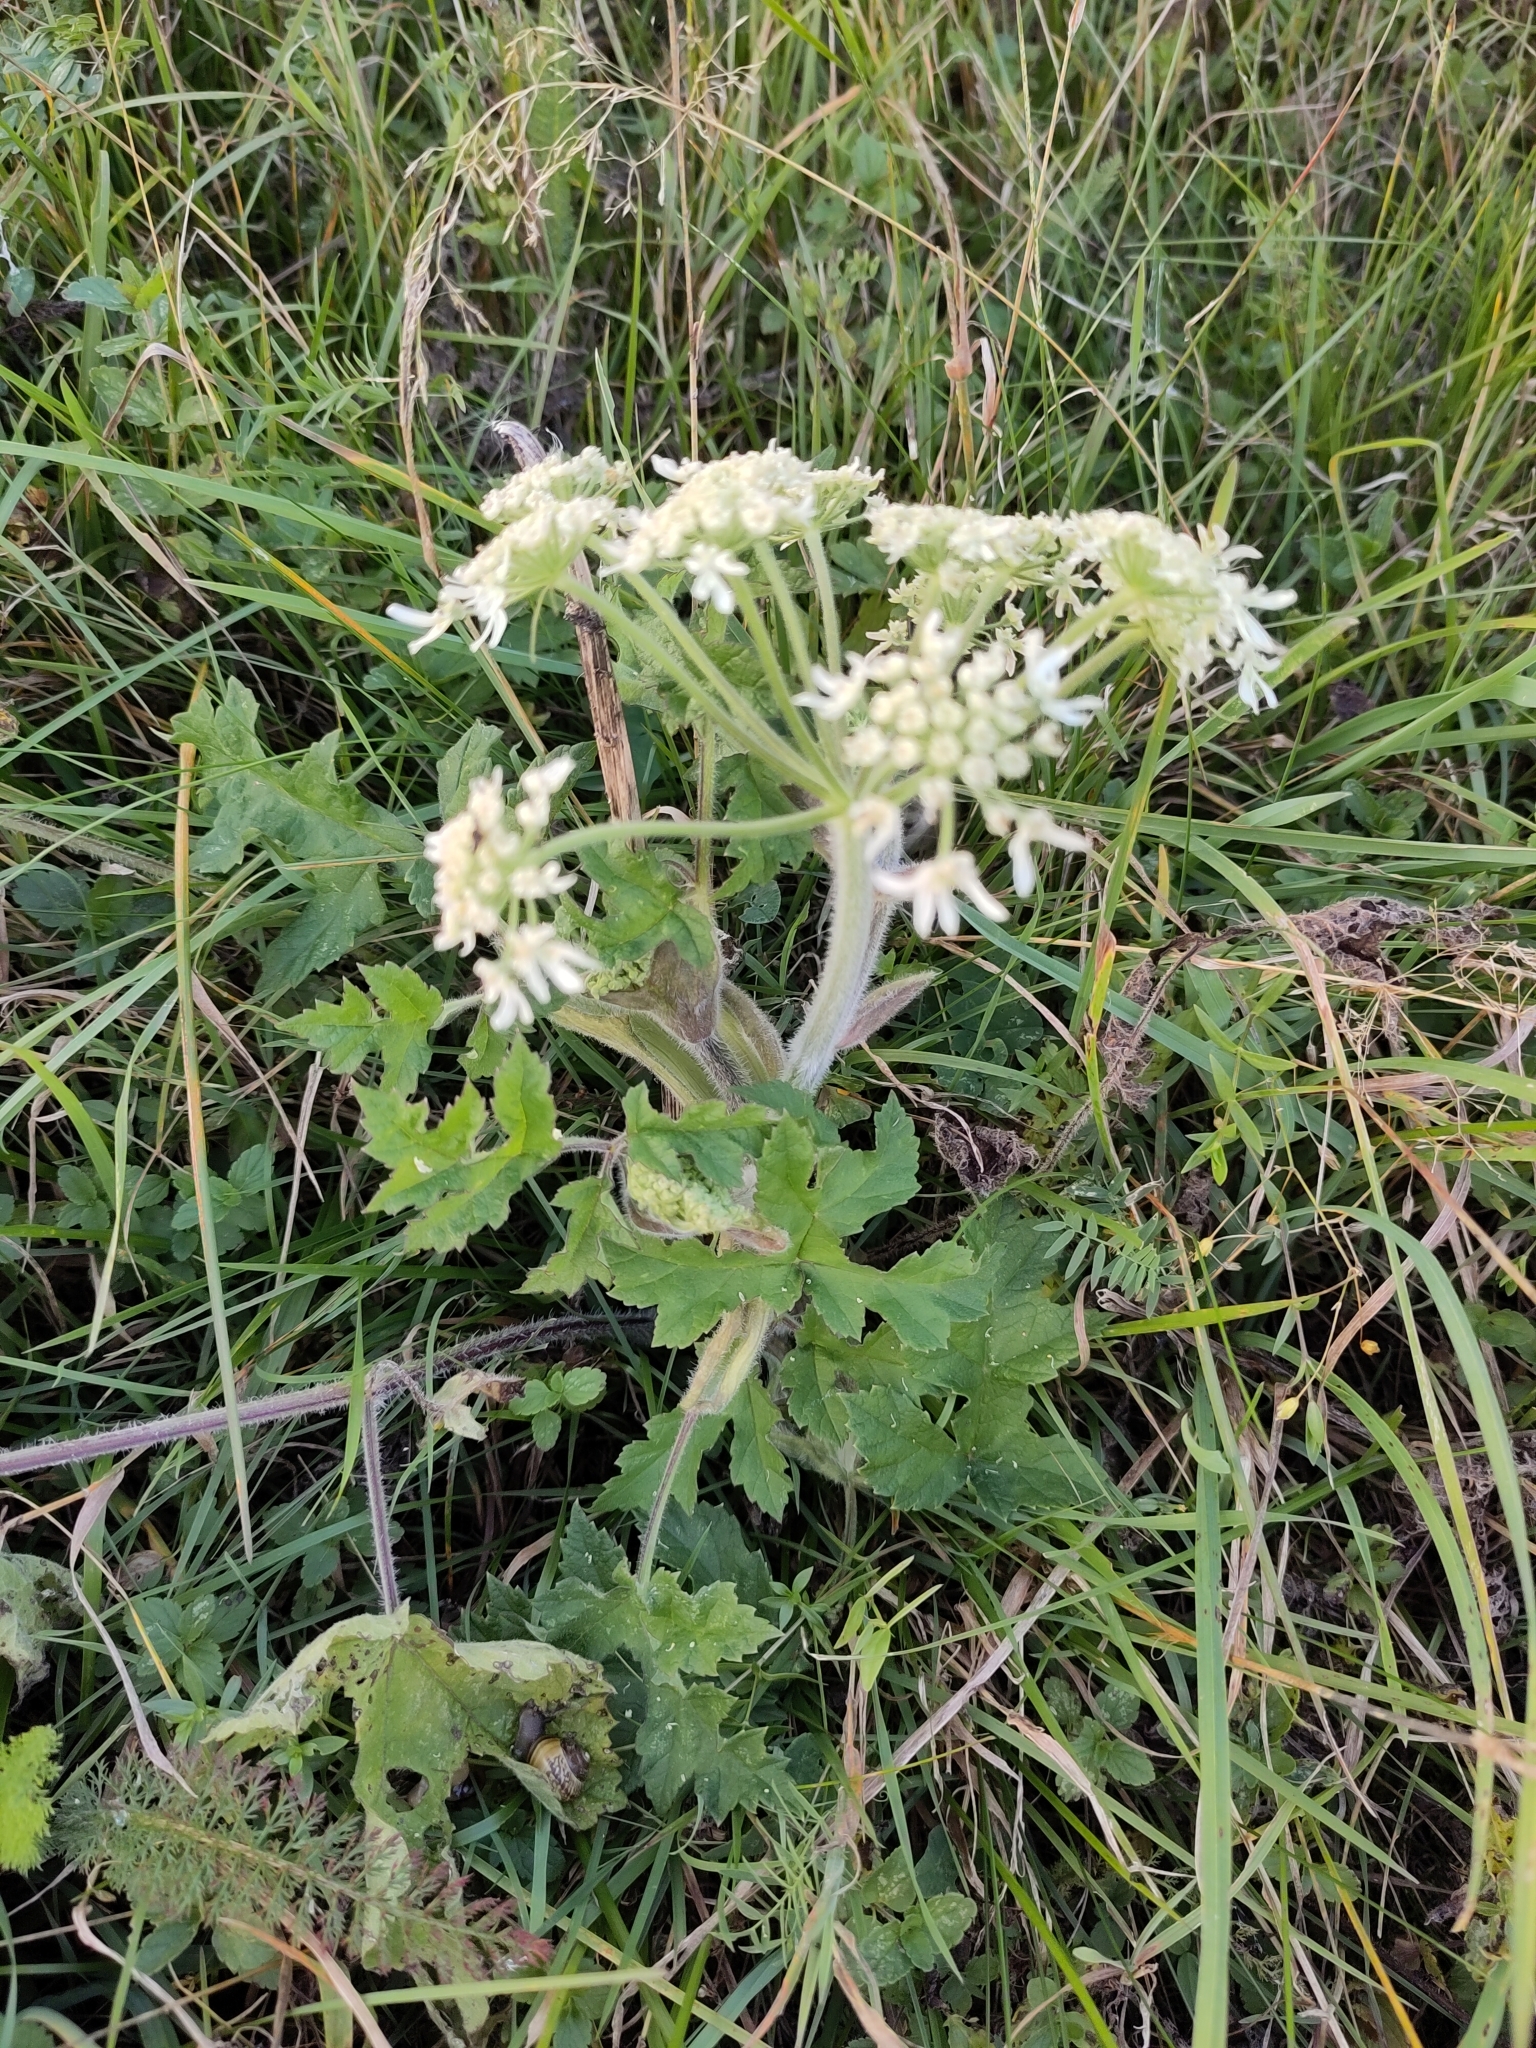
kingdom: Plantae
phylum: Tracheophyta
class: Magnoliopsida
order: Apiales
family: Apiaceae
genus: Heracleum
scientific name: Heracleum sphondylium
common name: Hogweed
